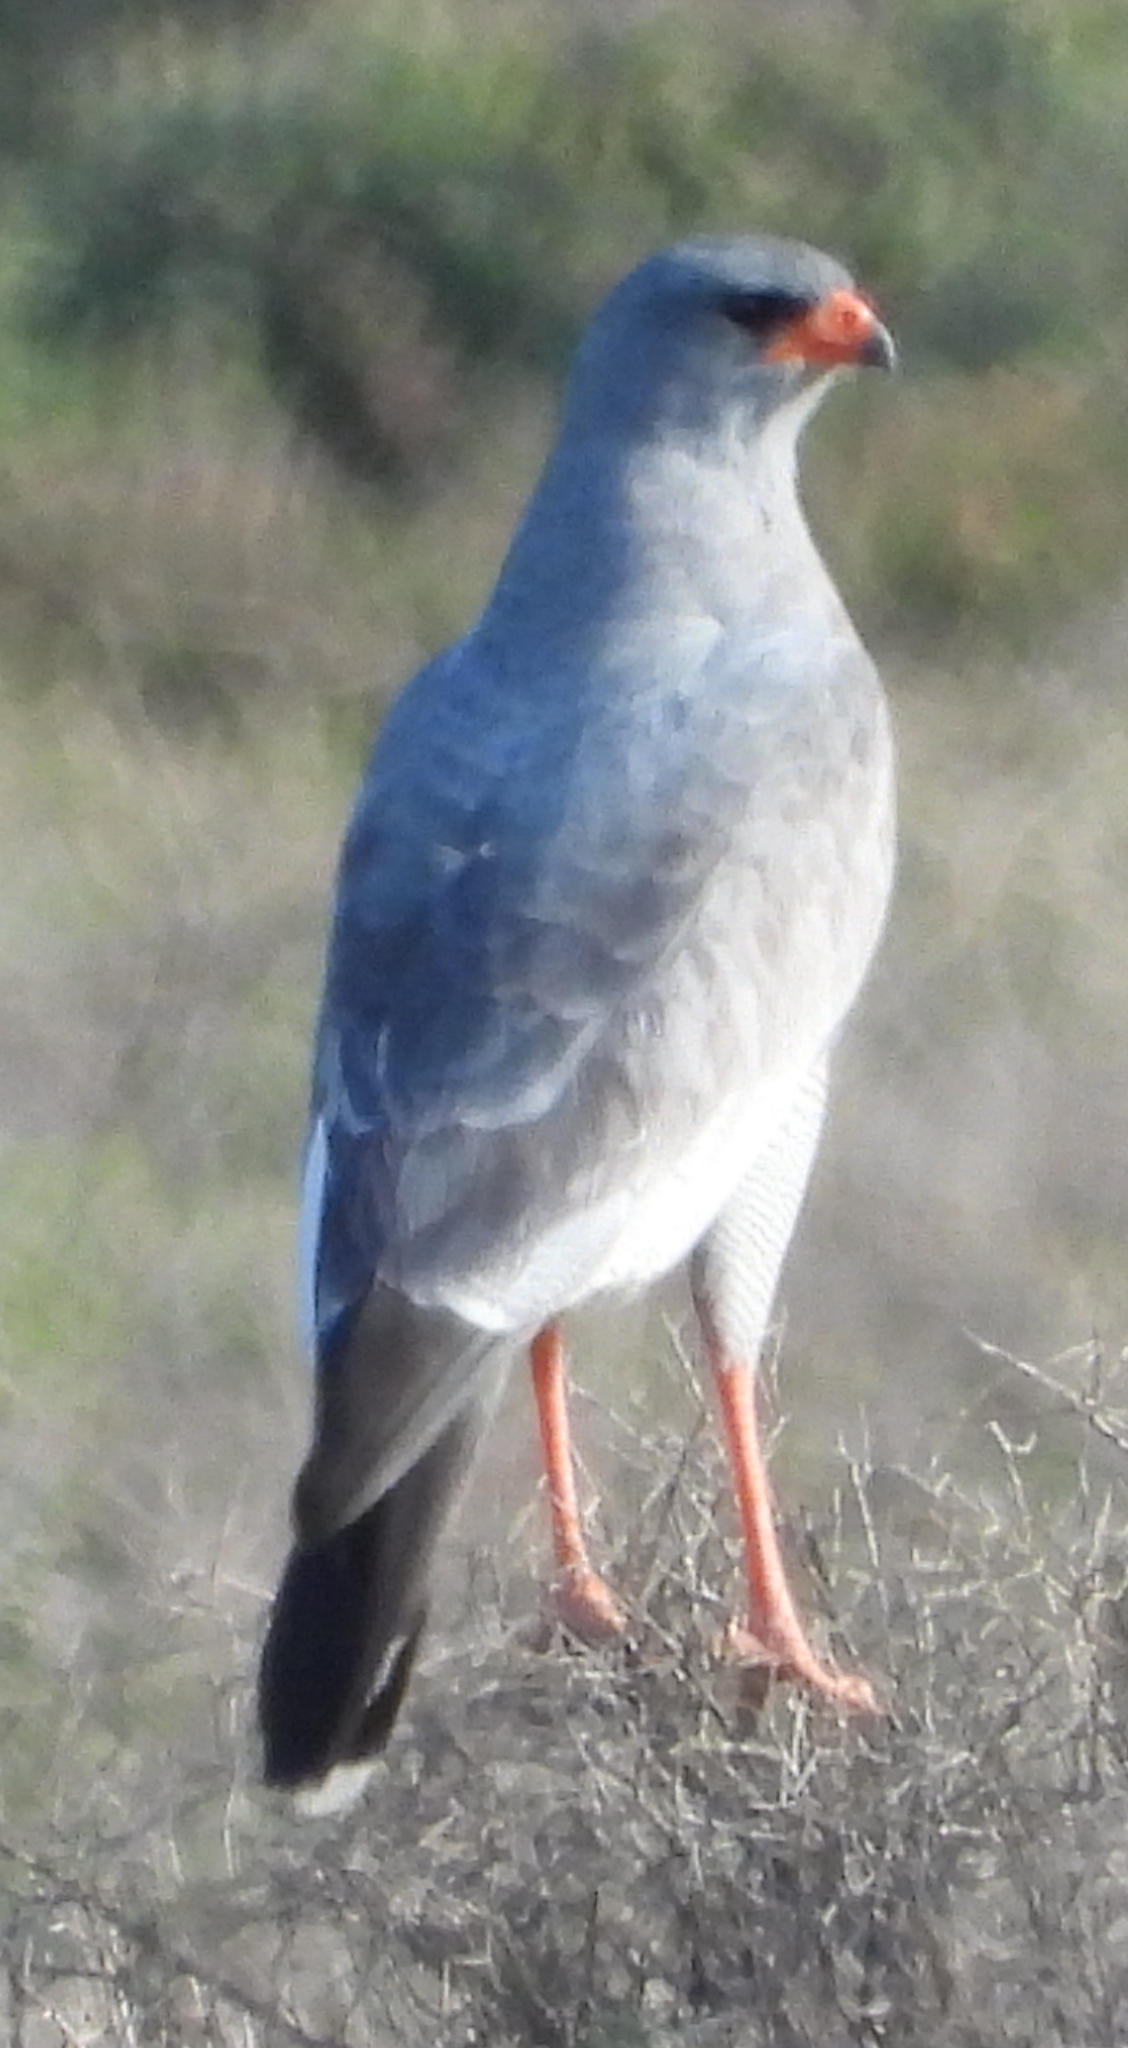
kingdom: Animalia
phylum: Chordata
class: Aves
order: Accipitriformes
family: Accipitridae
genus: Melierax
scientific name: Melierax canorus
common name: Pale chanting-goshawk
